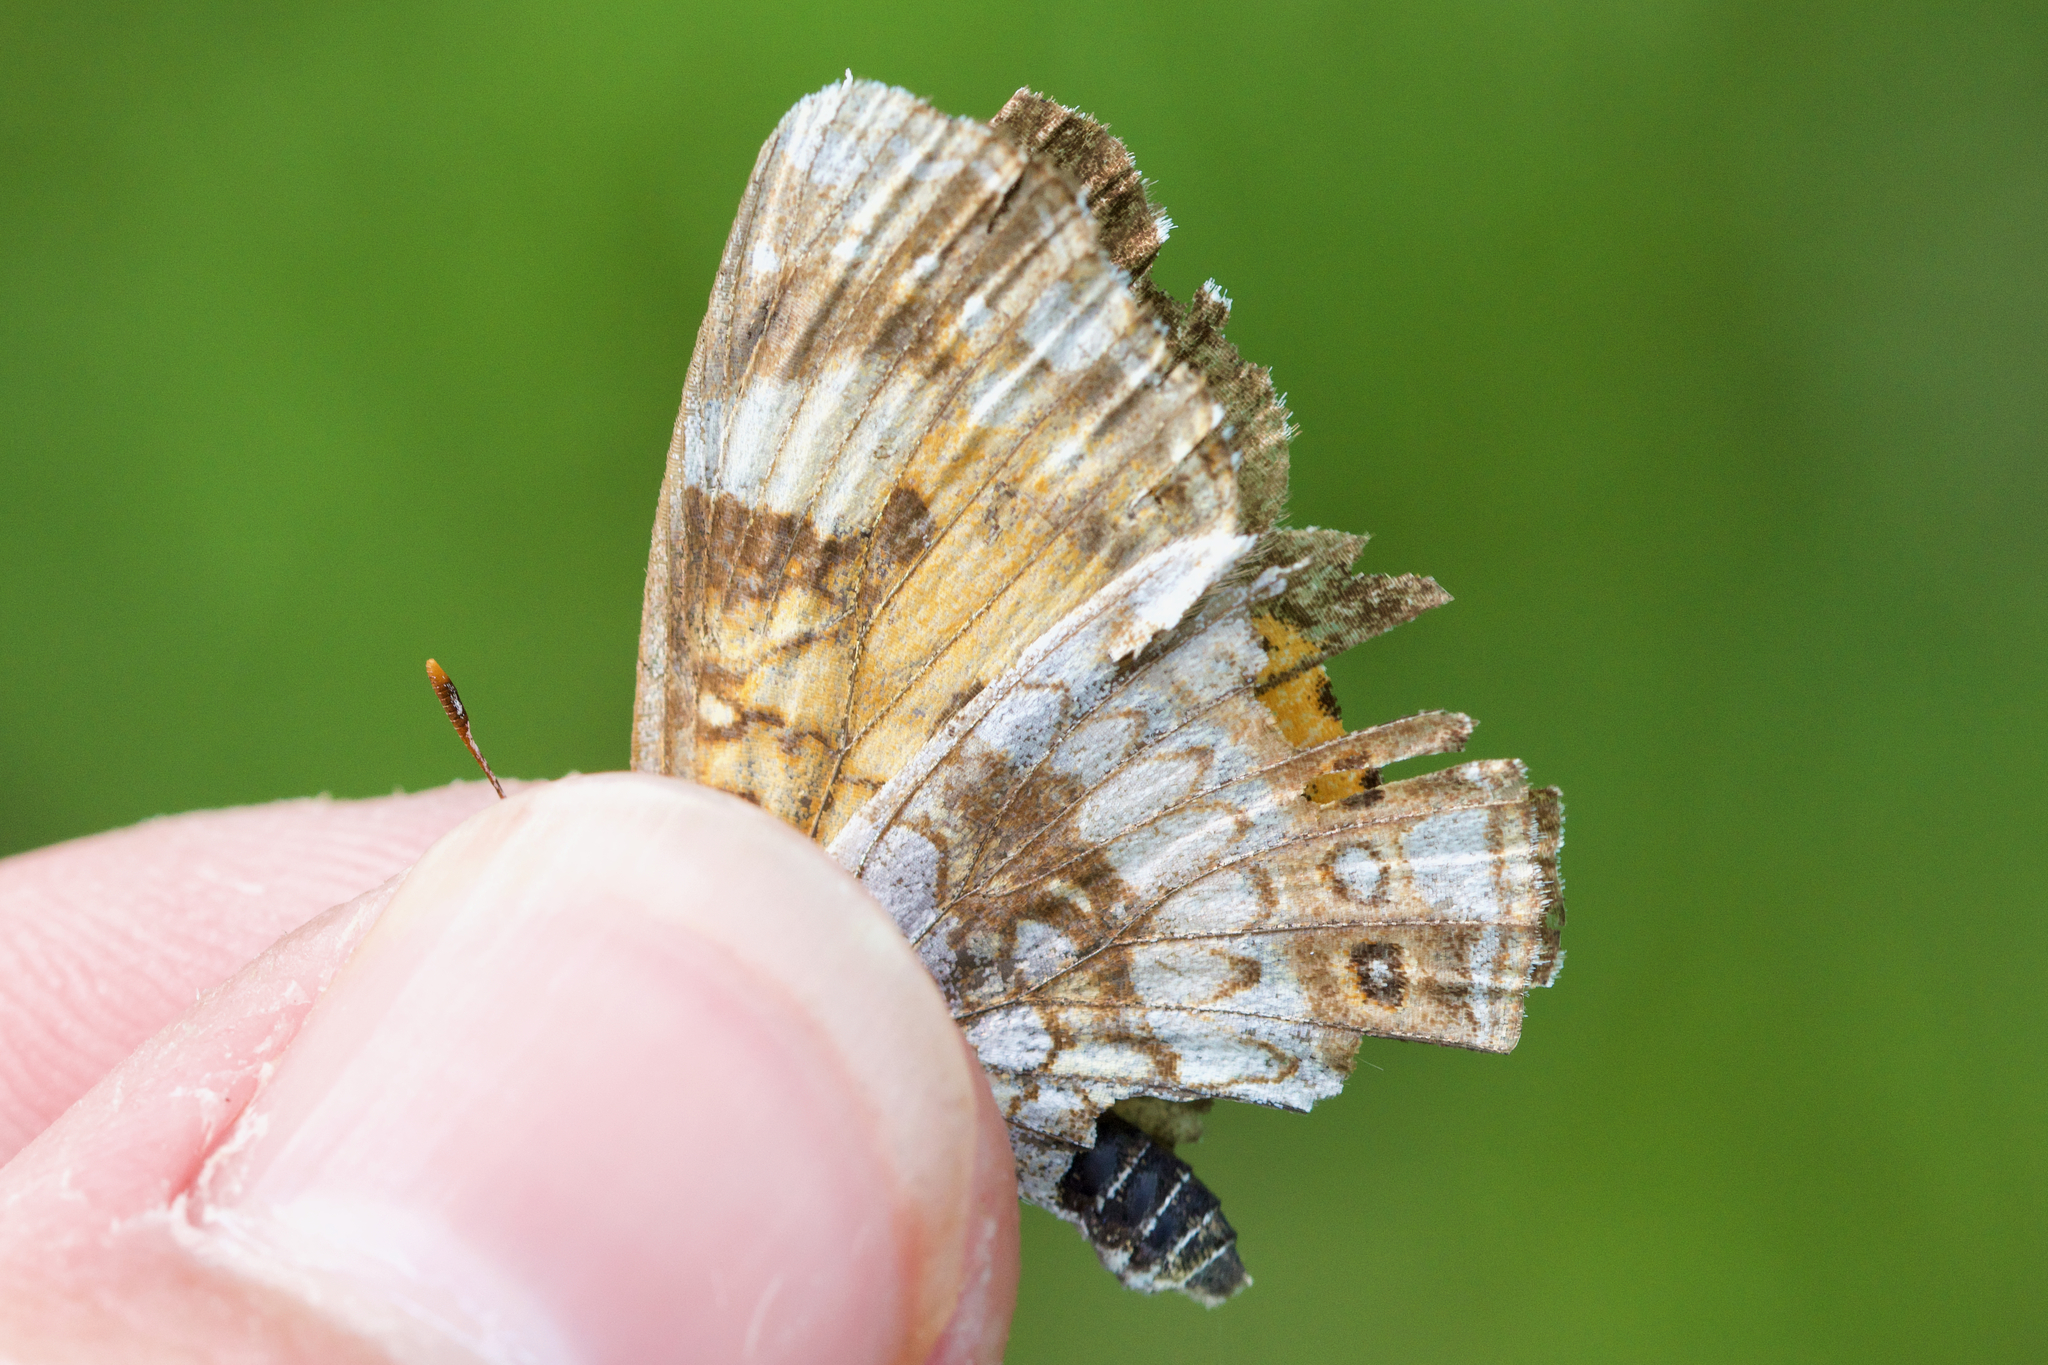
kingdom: Animalia
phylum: Arthropoda
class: Insecta
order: Lepidoptera
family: Nymphalidae
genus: Chlosyne
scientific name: Chlosyne nycteis
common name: Silvery checkerspot
